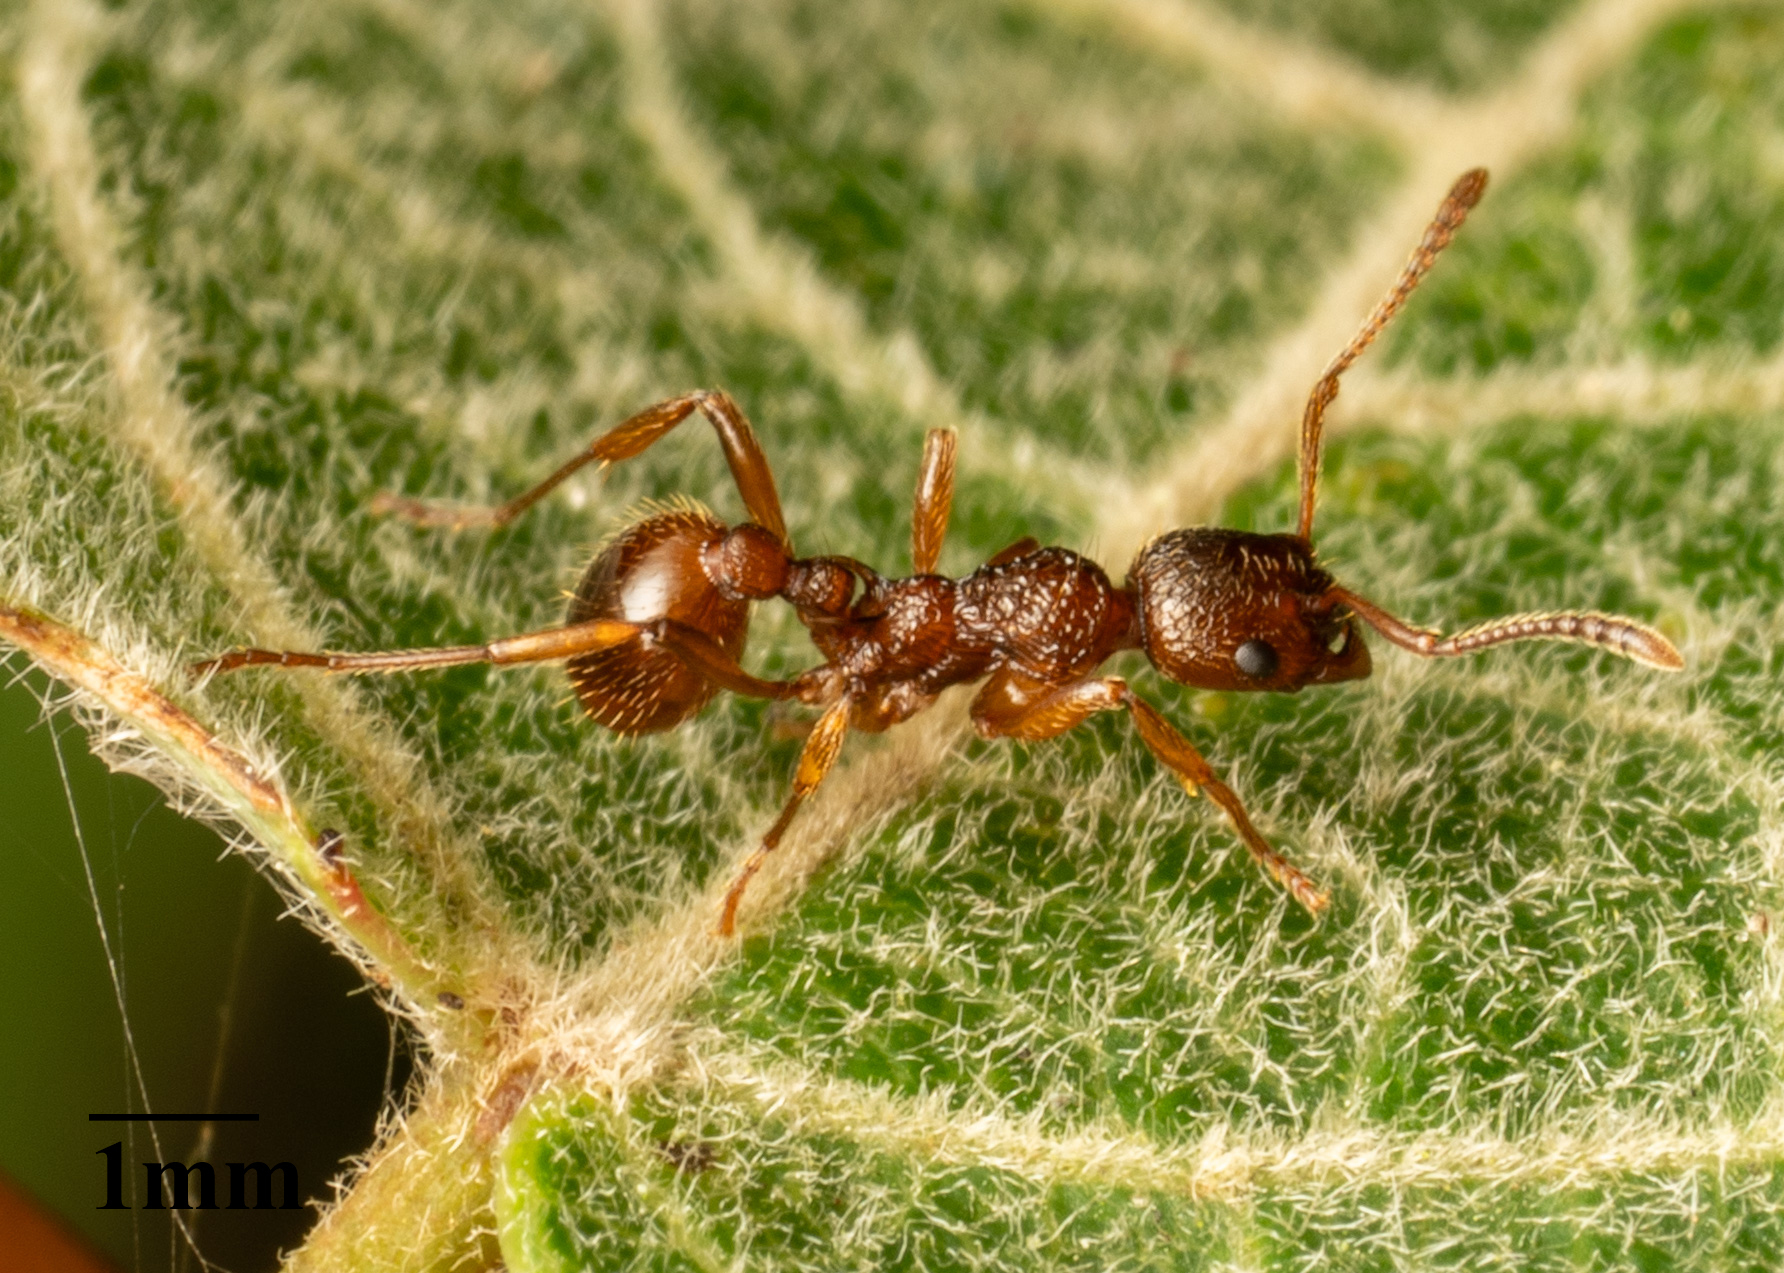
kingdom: Animalia
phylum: Arthropoda
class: Insecta
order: Hymenoptera
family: Formicidae
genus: Myrmica
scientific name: Myrmica ruginodis
